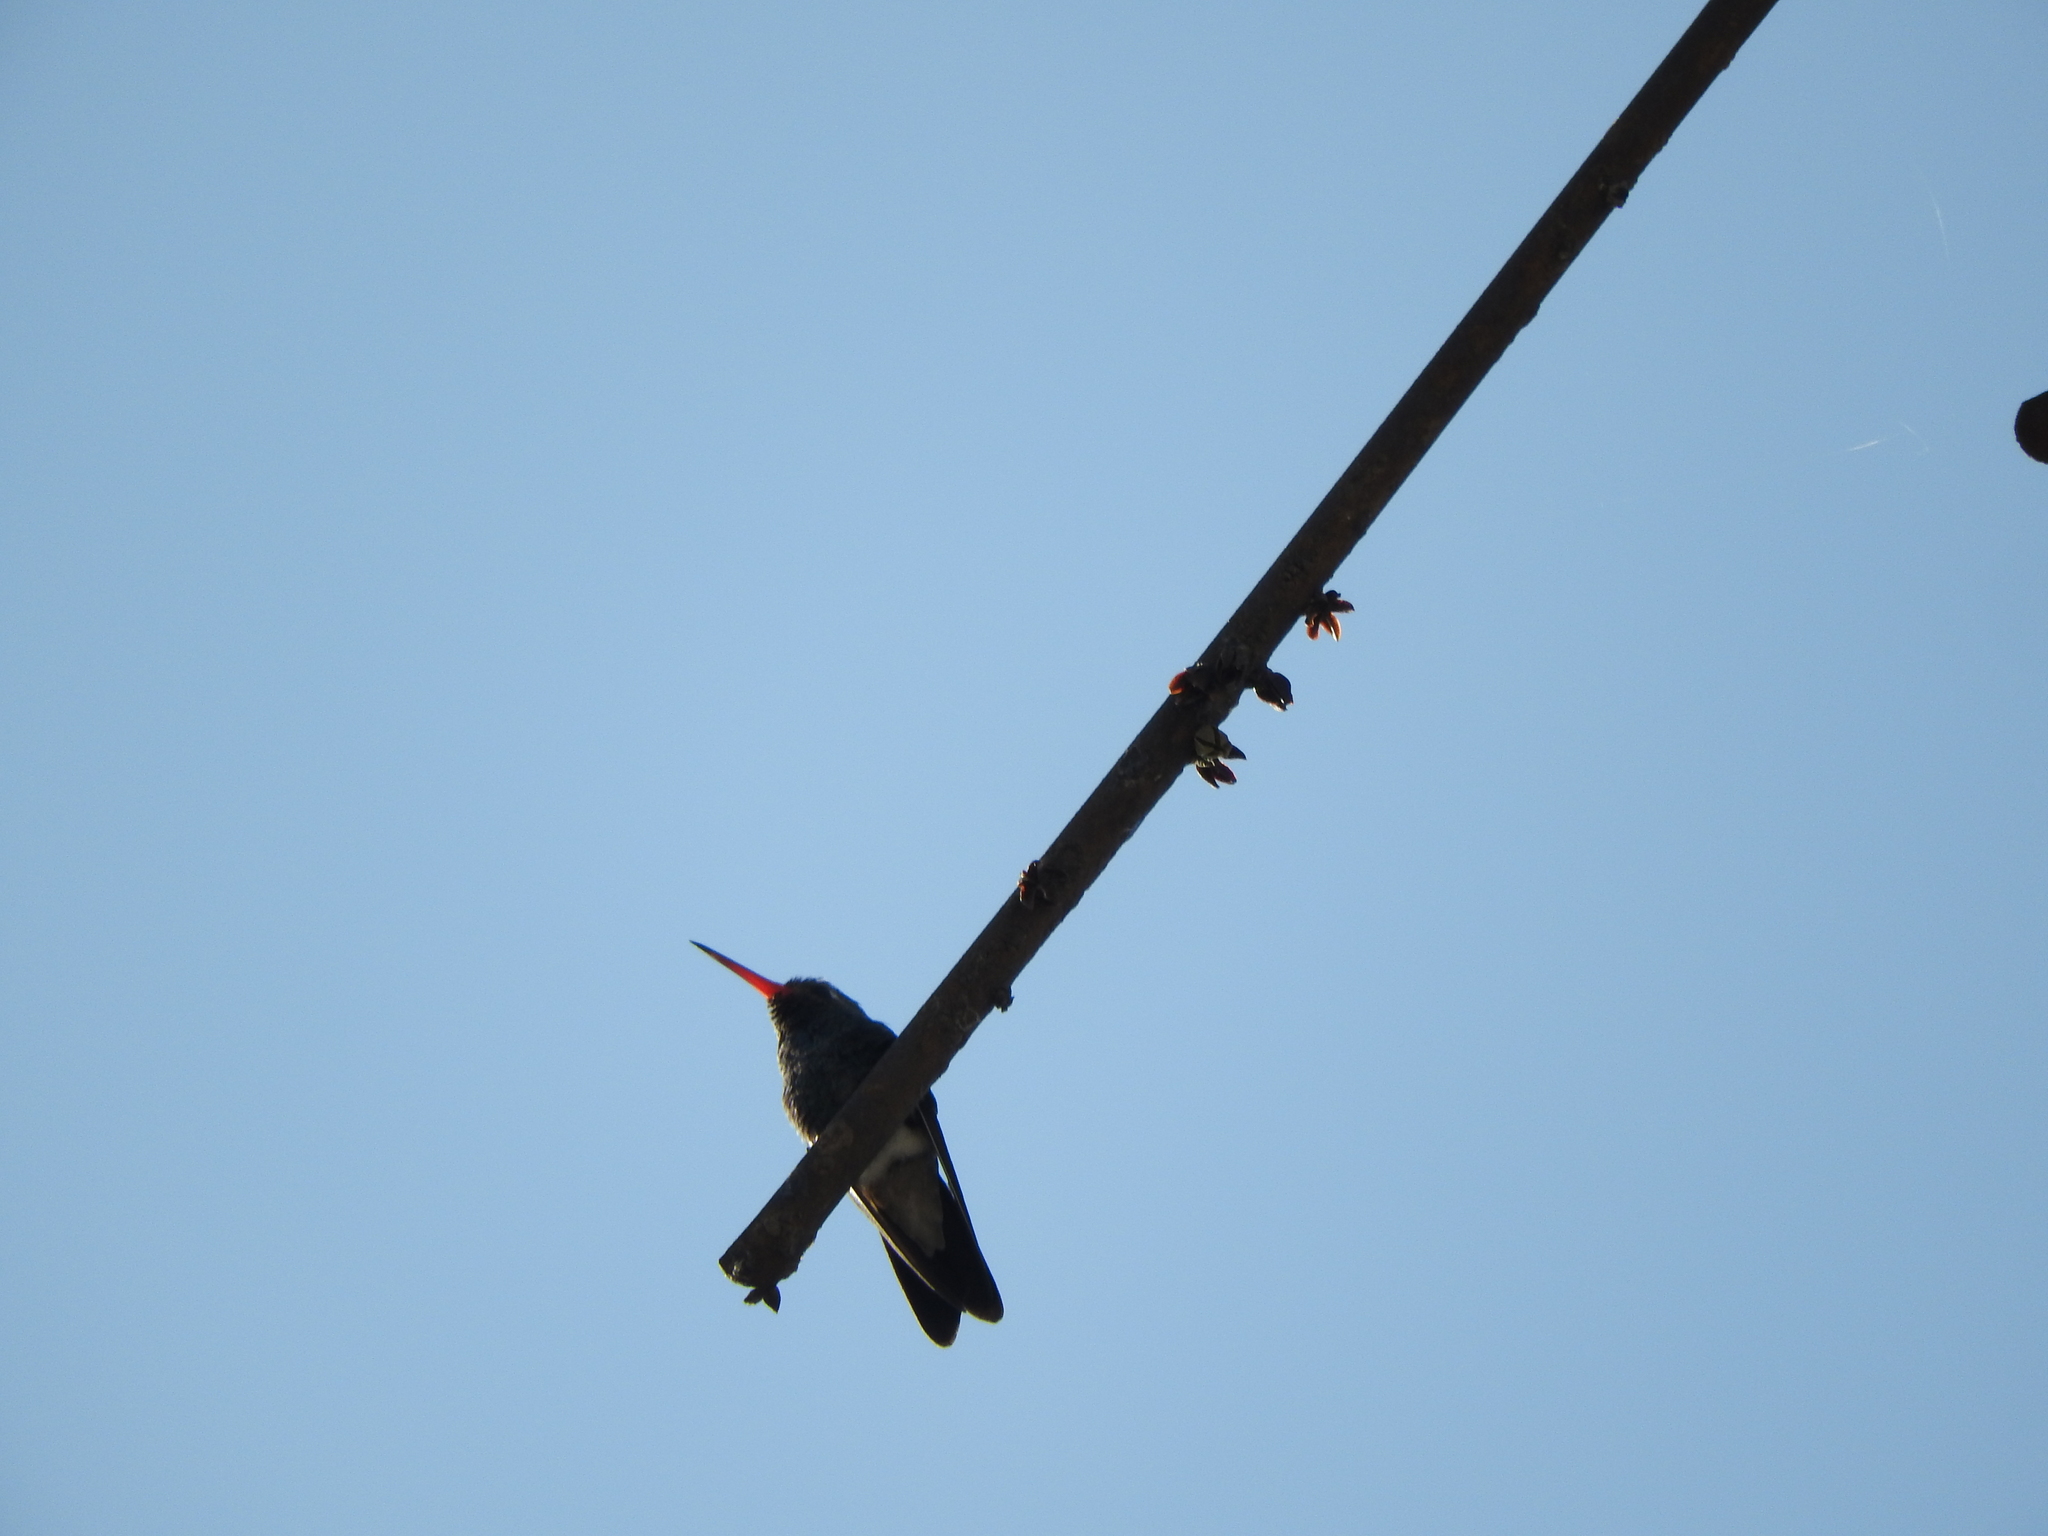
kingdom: Animalia
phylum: Chordata
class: Aves
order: Apodiformes
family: Trochilidae
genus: Cynanthus
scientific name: Cynanthus latirostris
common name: Broad-billed hummingbird
